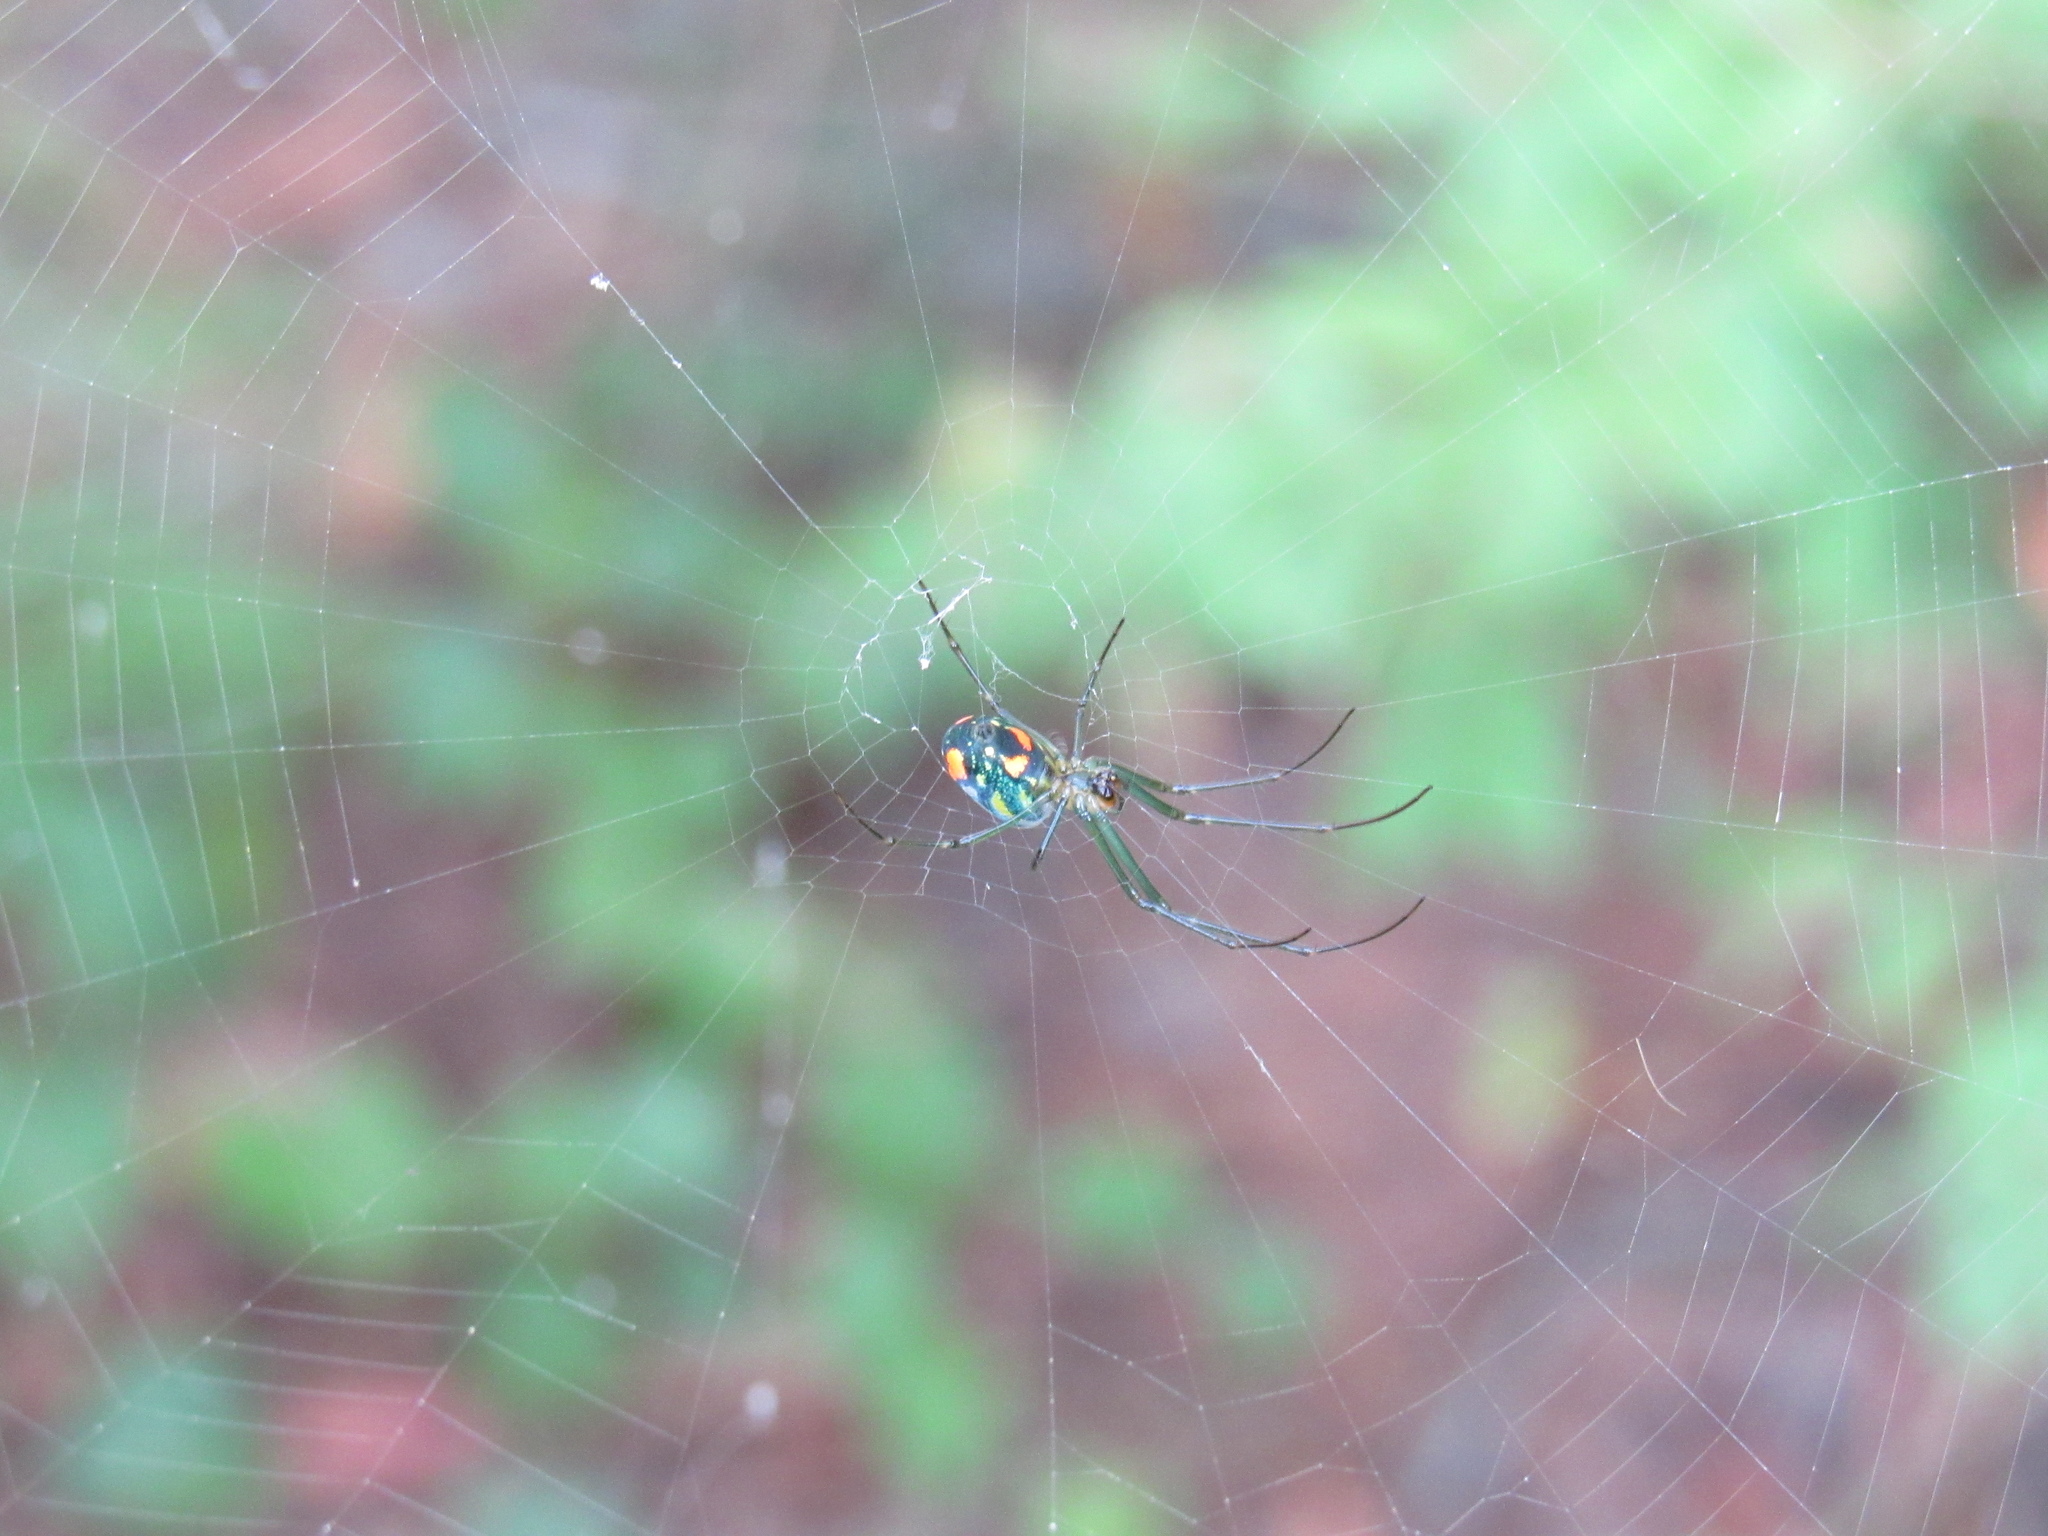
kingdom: Animalia
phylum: Arthropoda
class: Arachnida
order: Araneae
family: Tetragnathidae
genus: Leucauge
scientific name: Leucauge argyrobapta
